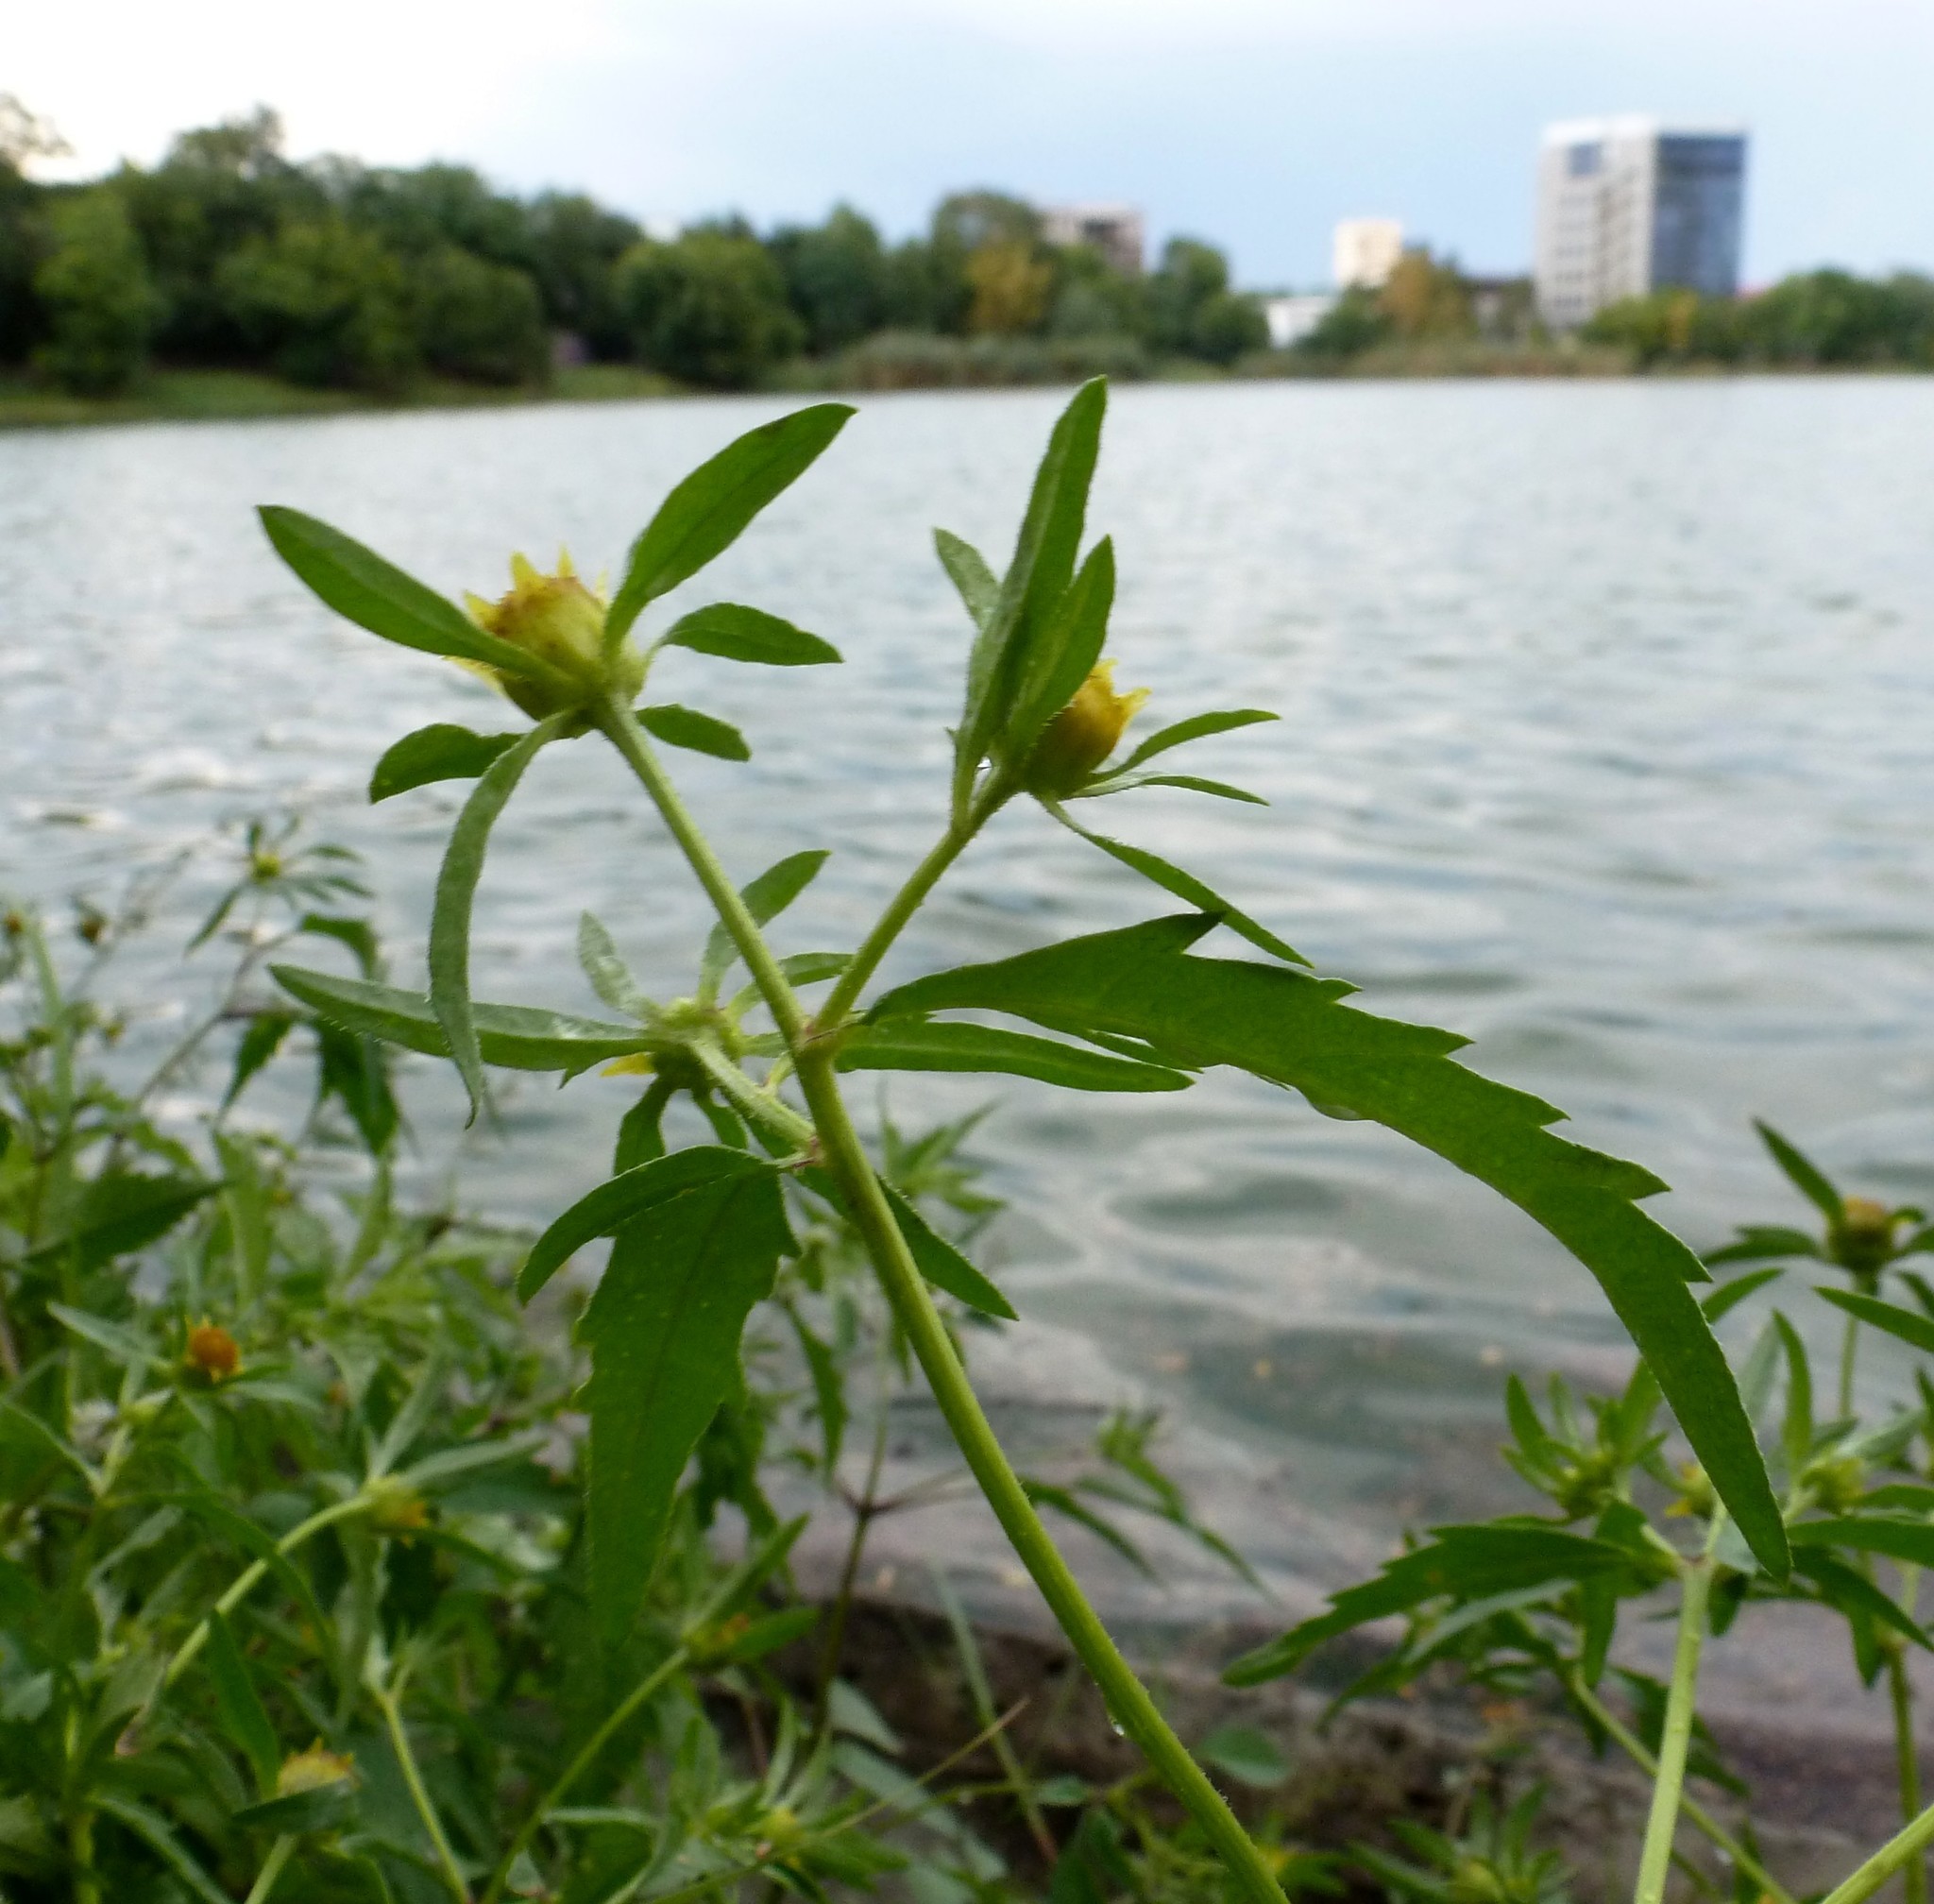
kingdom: Plantae
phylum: Tracheophyta
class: Magnoliopsida
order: Asterales
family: Asteraceae
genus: Bidens
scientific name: Bidens tripartita
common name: Trifid bur-marigold
